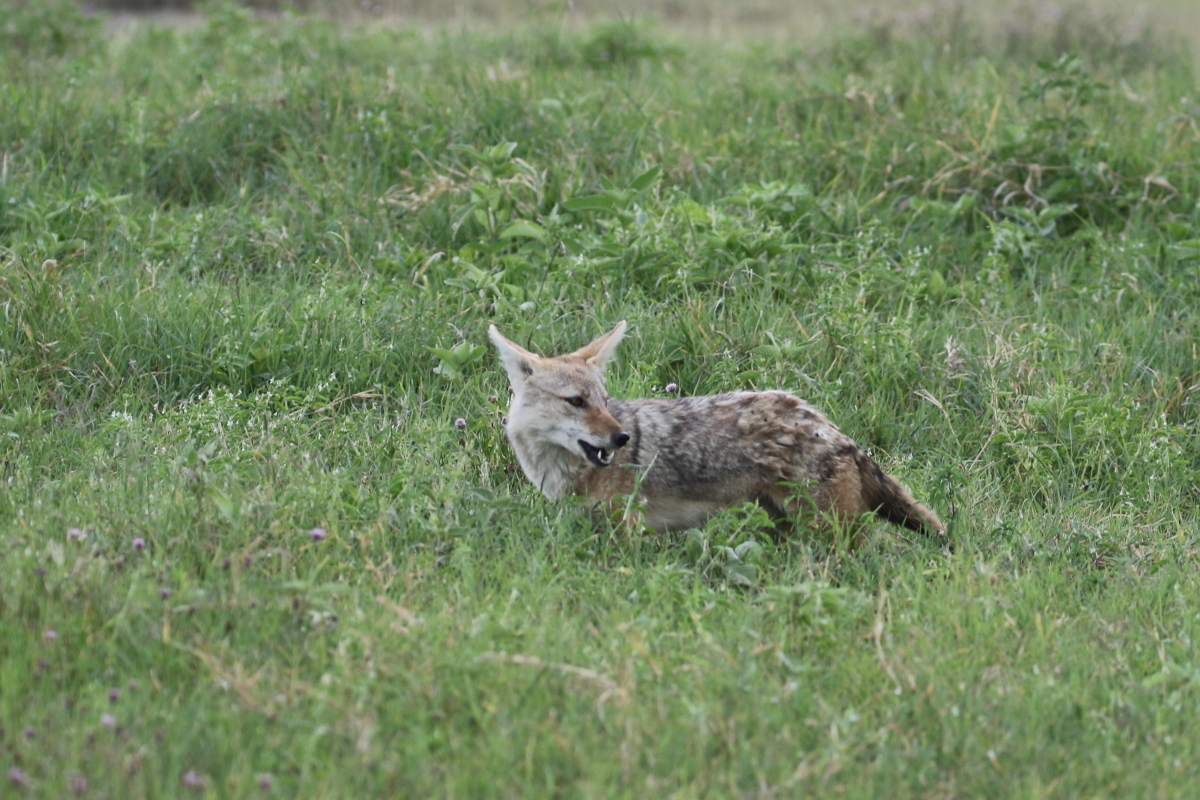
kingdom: Animalia
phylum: Chordata
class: Mammalia
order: Carnivora
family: Canidae
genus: Canis
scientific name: Canis lupaster
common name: African golden wolf
